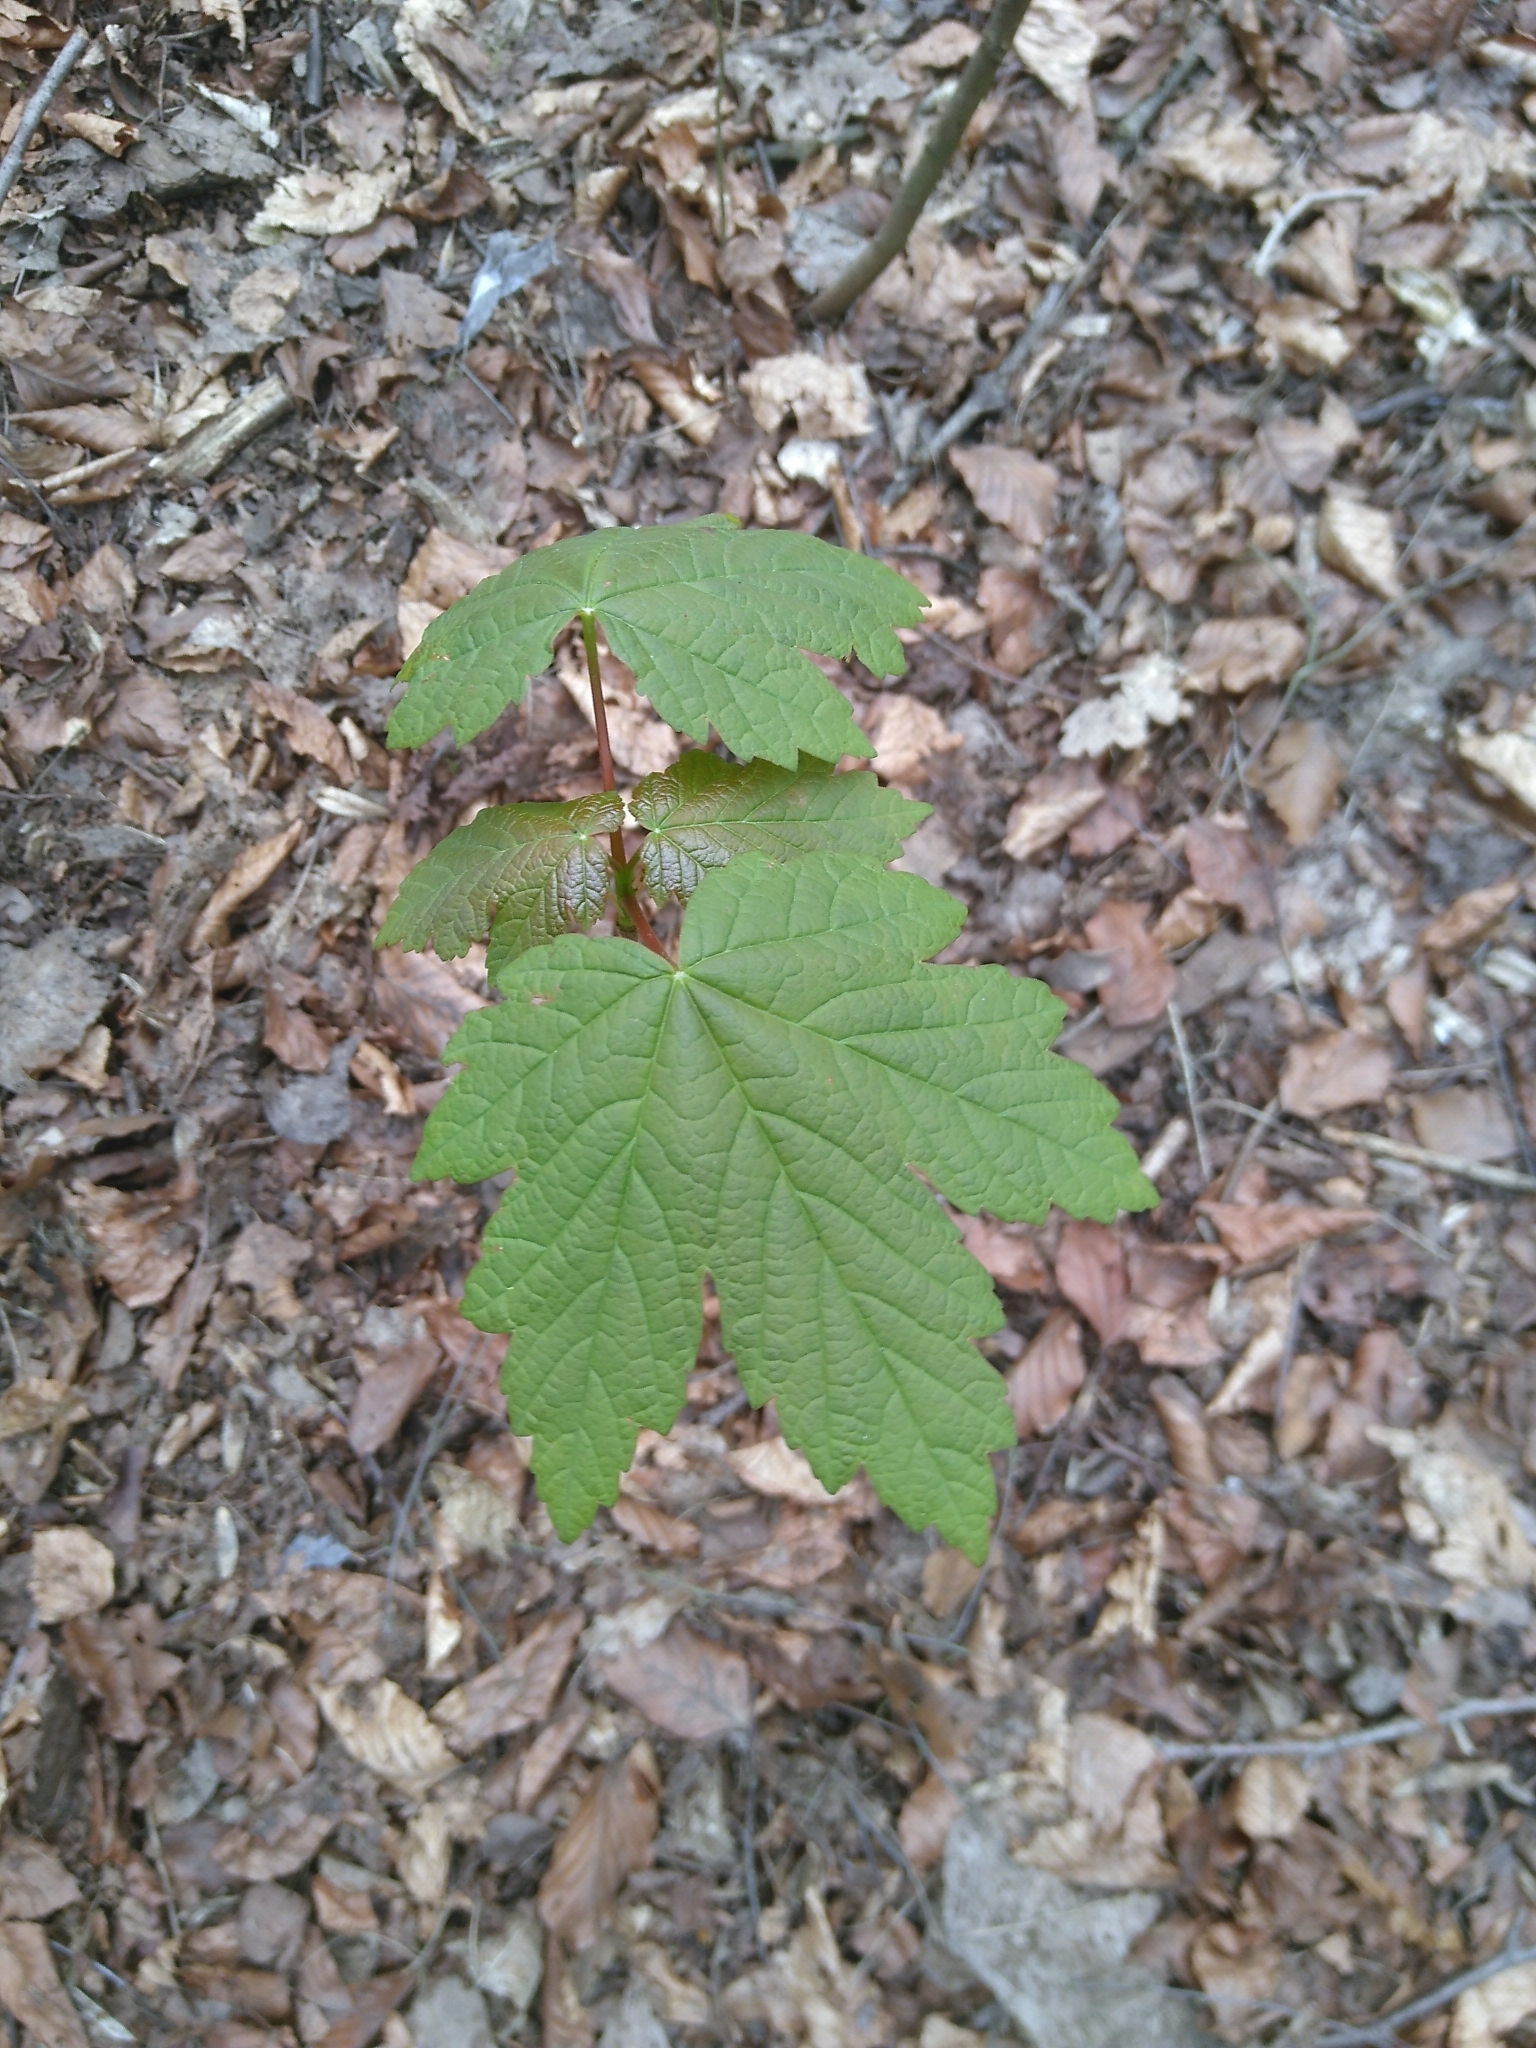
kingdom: Plantae
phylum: Tracheophyta
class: Magnoliopsida
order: Sapindales
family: Sapindaceae
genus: Acer
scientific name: Acer pseudoplatanus
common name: Sycamore
